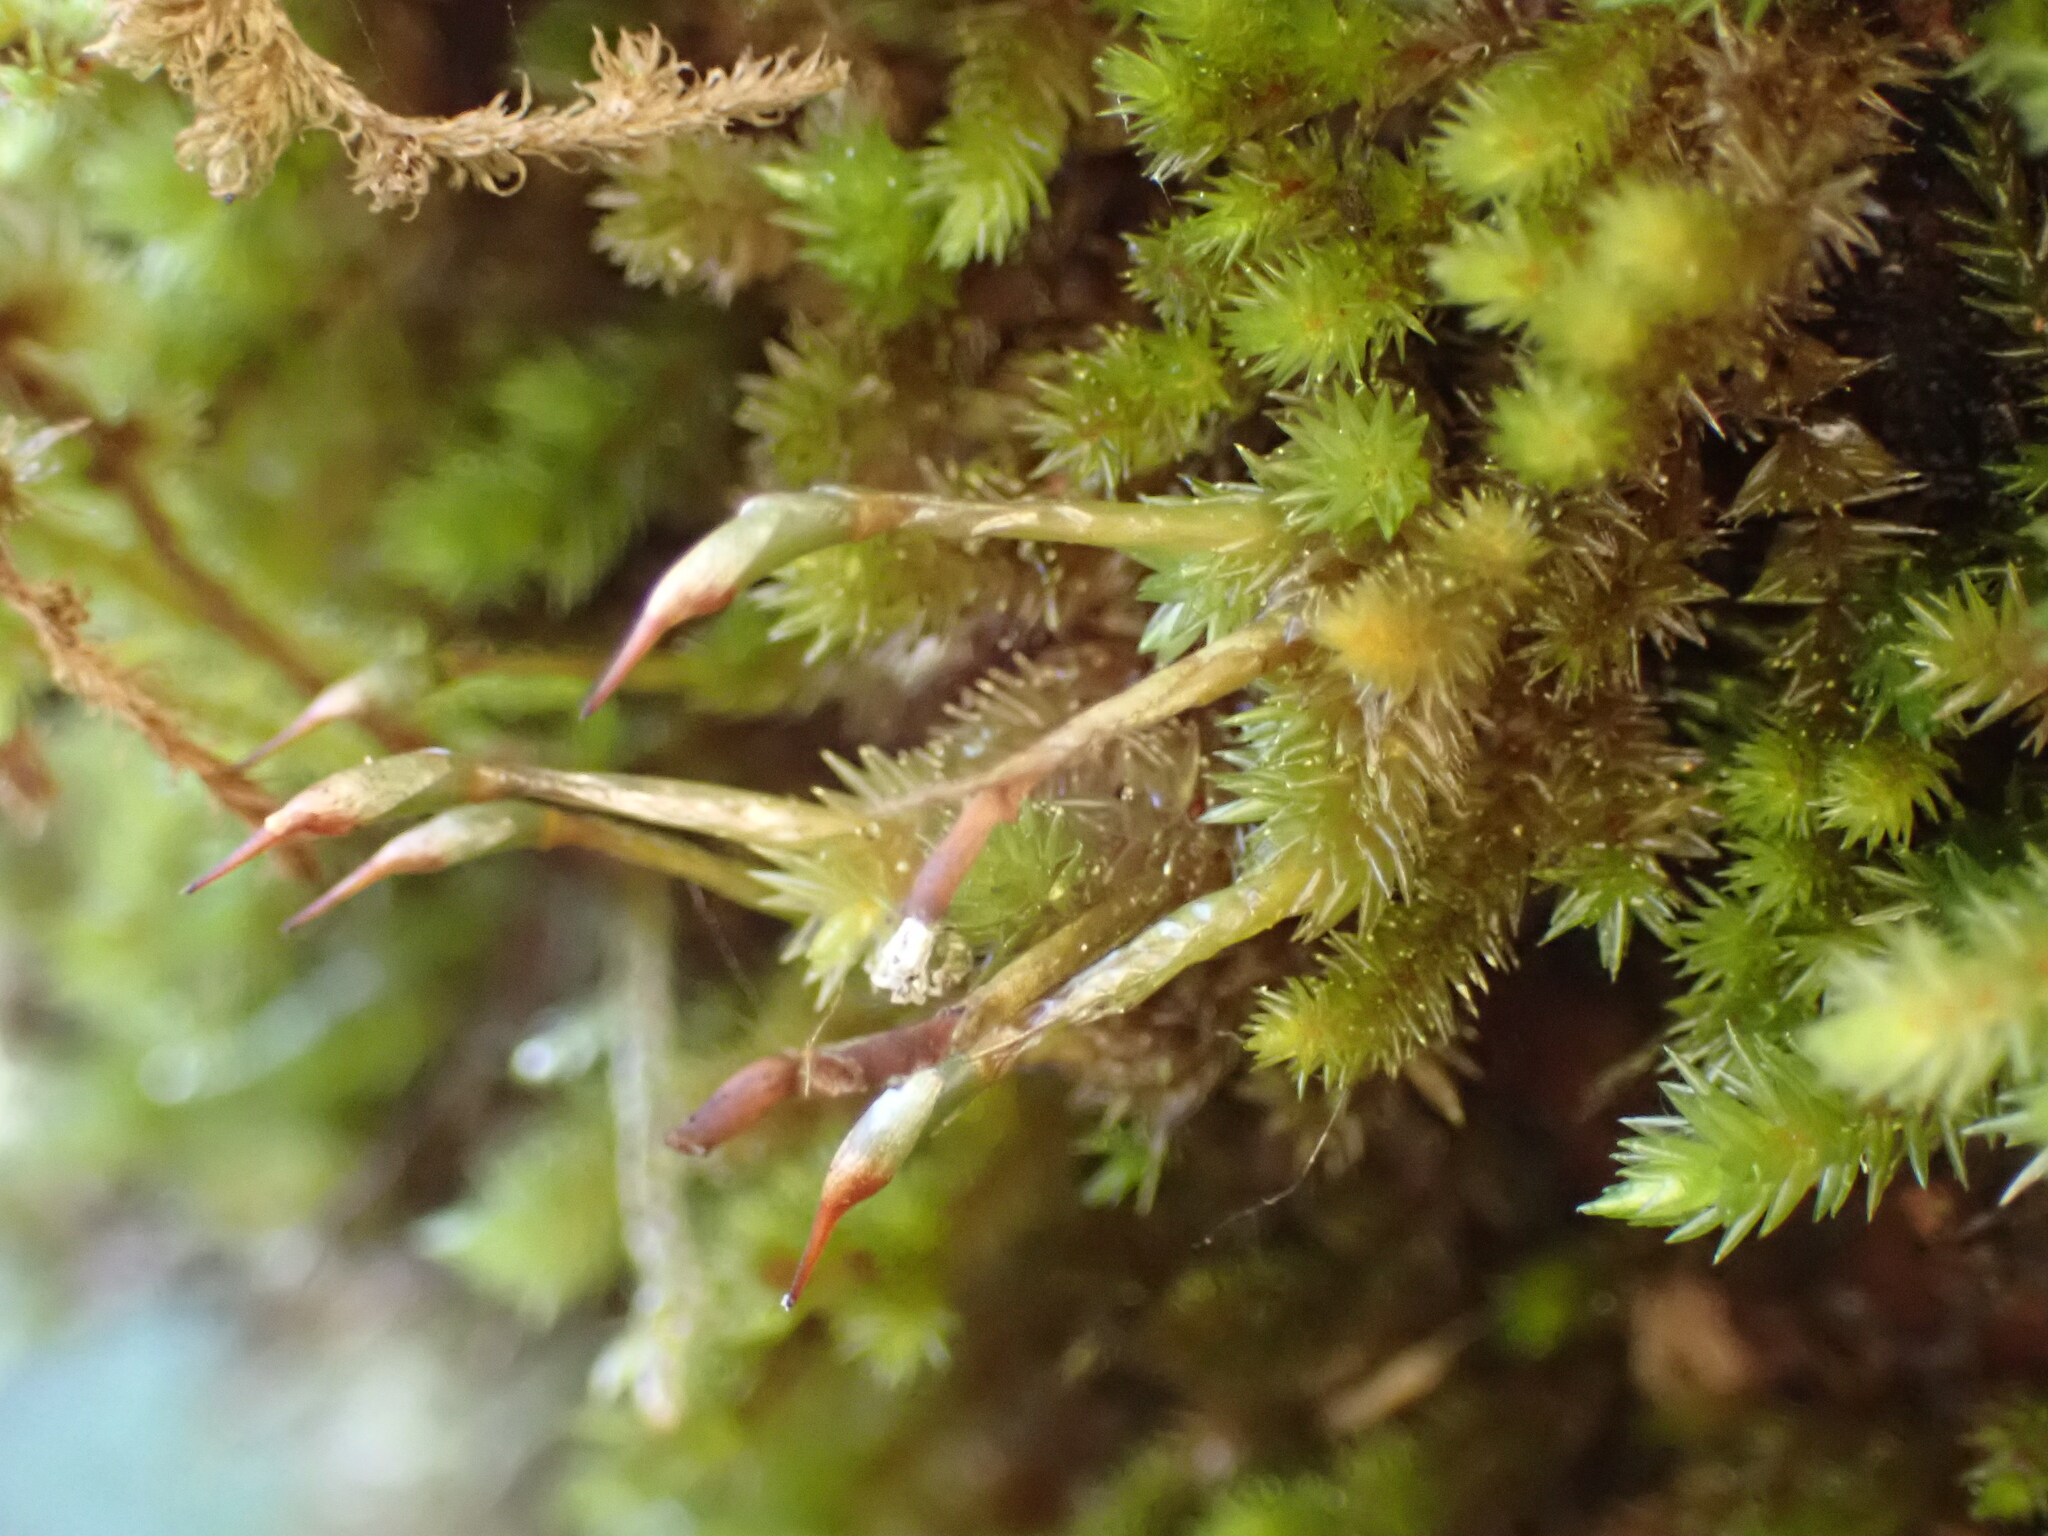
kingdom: Plantae
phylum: Bryophyta
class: Bryopsida
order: Dicranales
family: Dicranaceae
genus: Dicnemon
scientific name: Dicnemon calycinum
